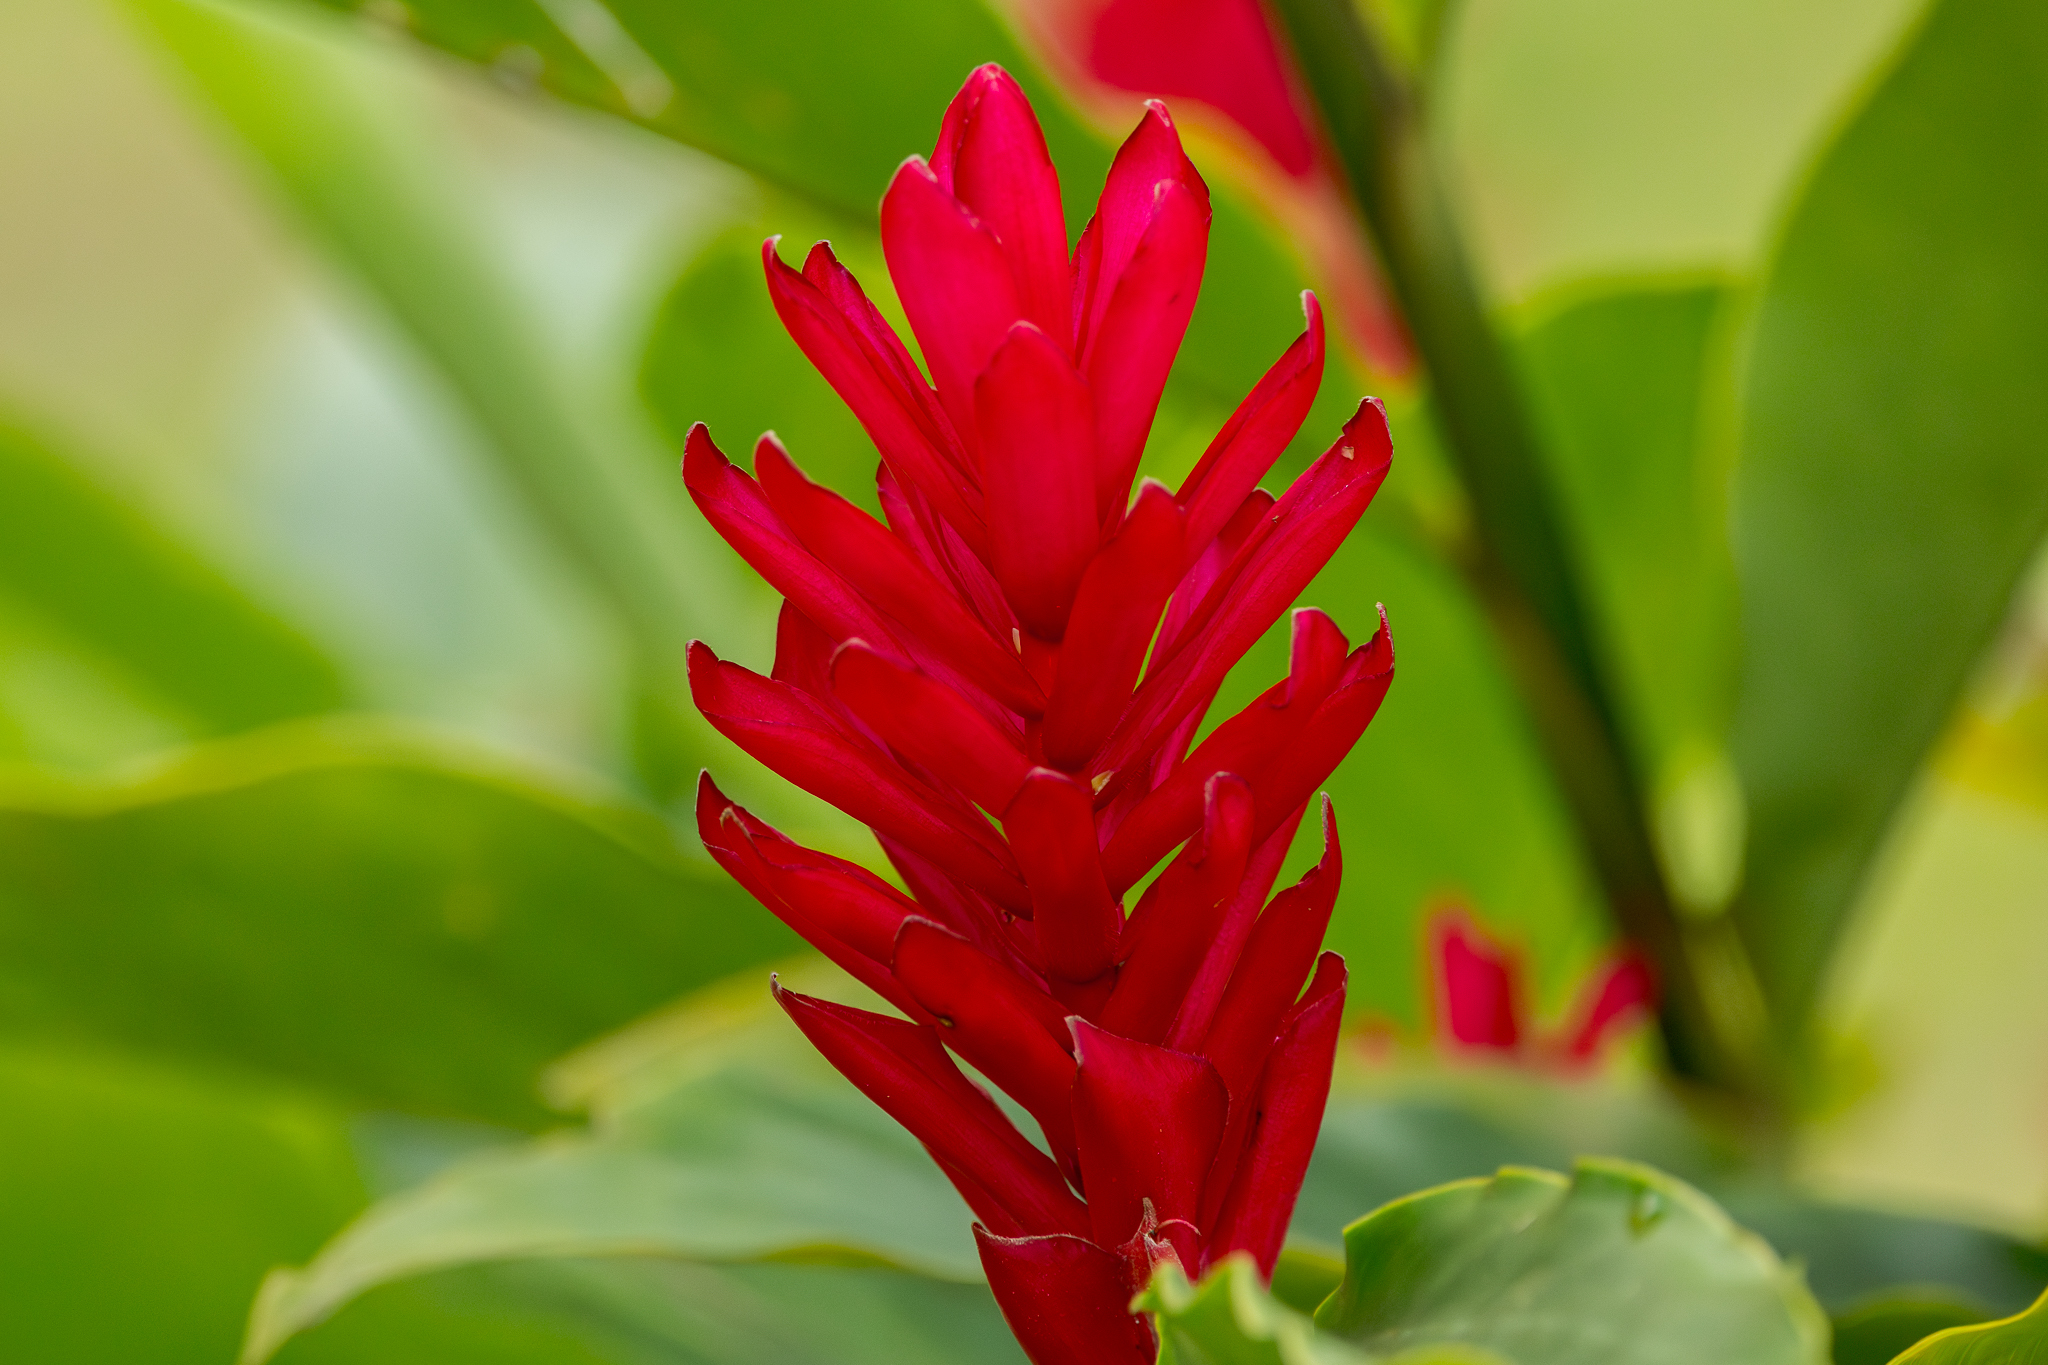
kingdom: Plantae
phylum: Tracheophyta
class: Liliopsida
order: Zingiberales
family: Zingiberaceae
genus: Alpinia
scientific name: Alpinia purpurata
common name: Red ginger
